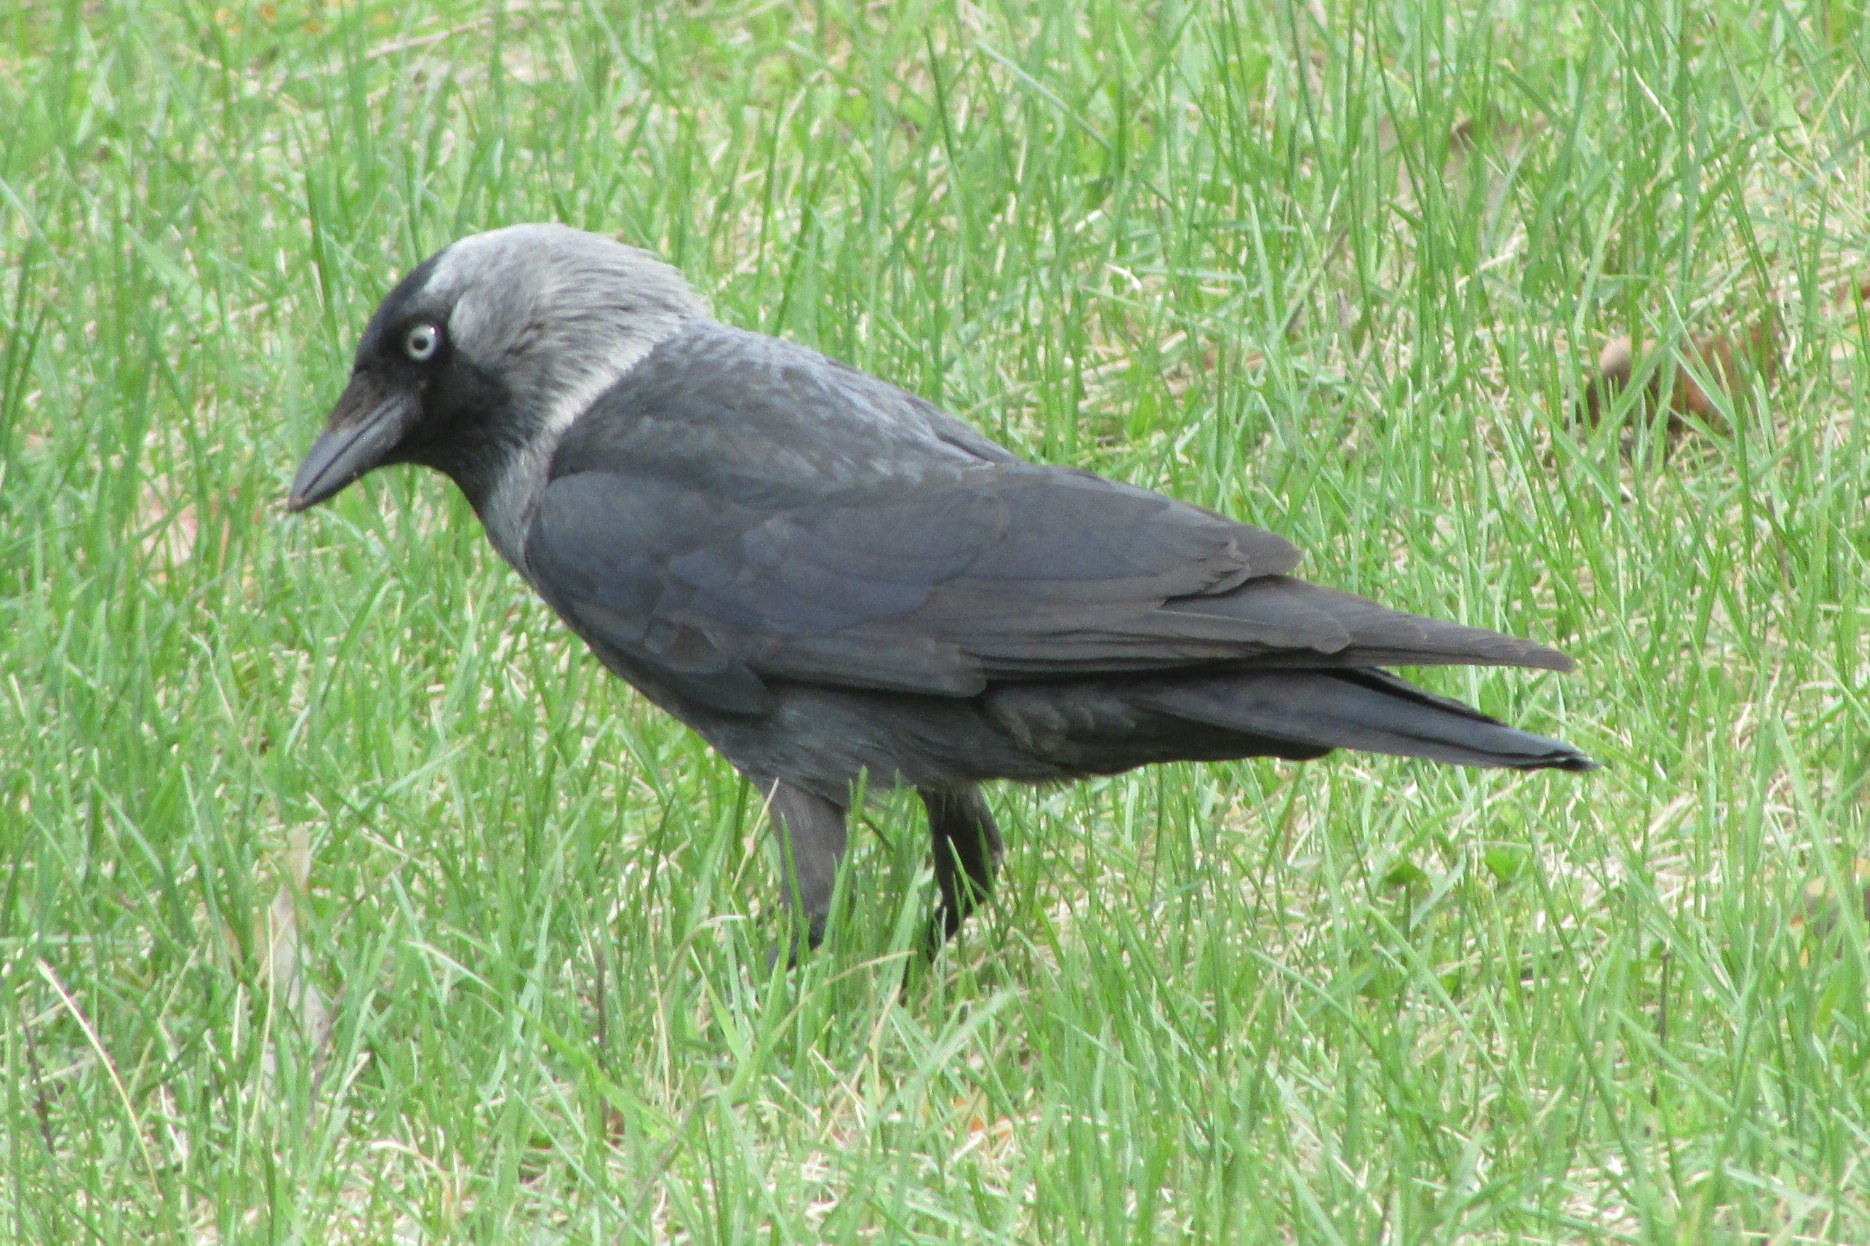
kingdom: Animalia
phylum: Chordata
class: Aves
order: Passeriformes
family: Corvidae
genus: Coloeus
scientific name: Coloeus monedula
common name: Western jackdaw
